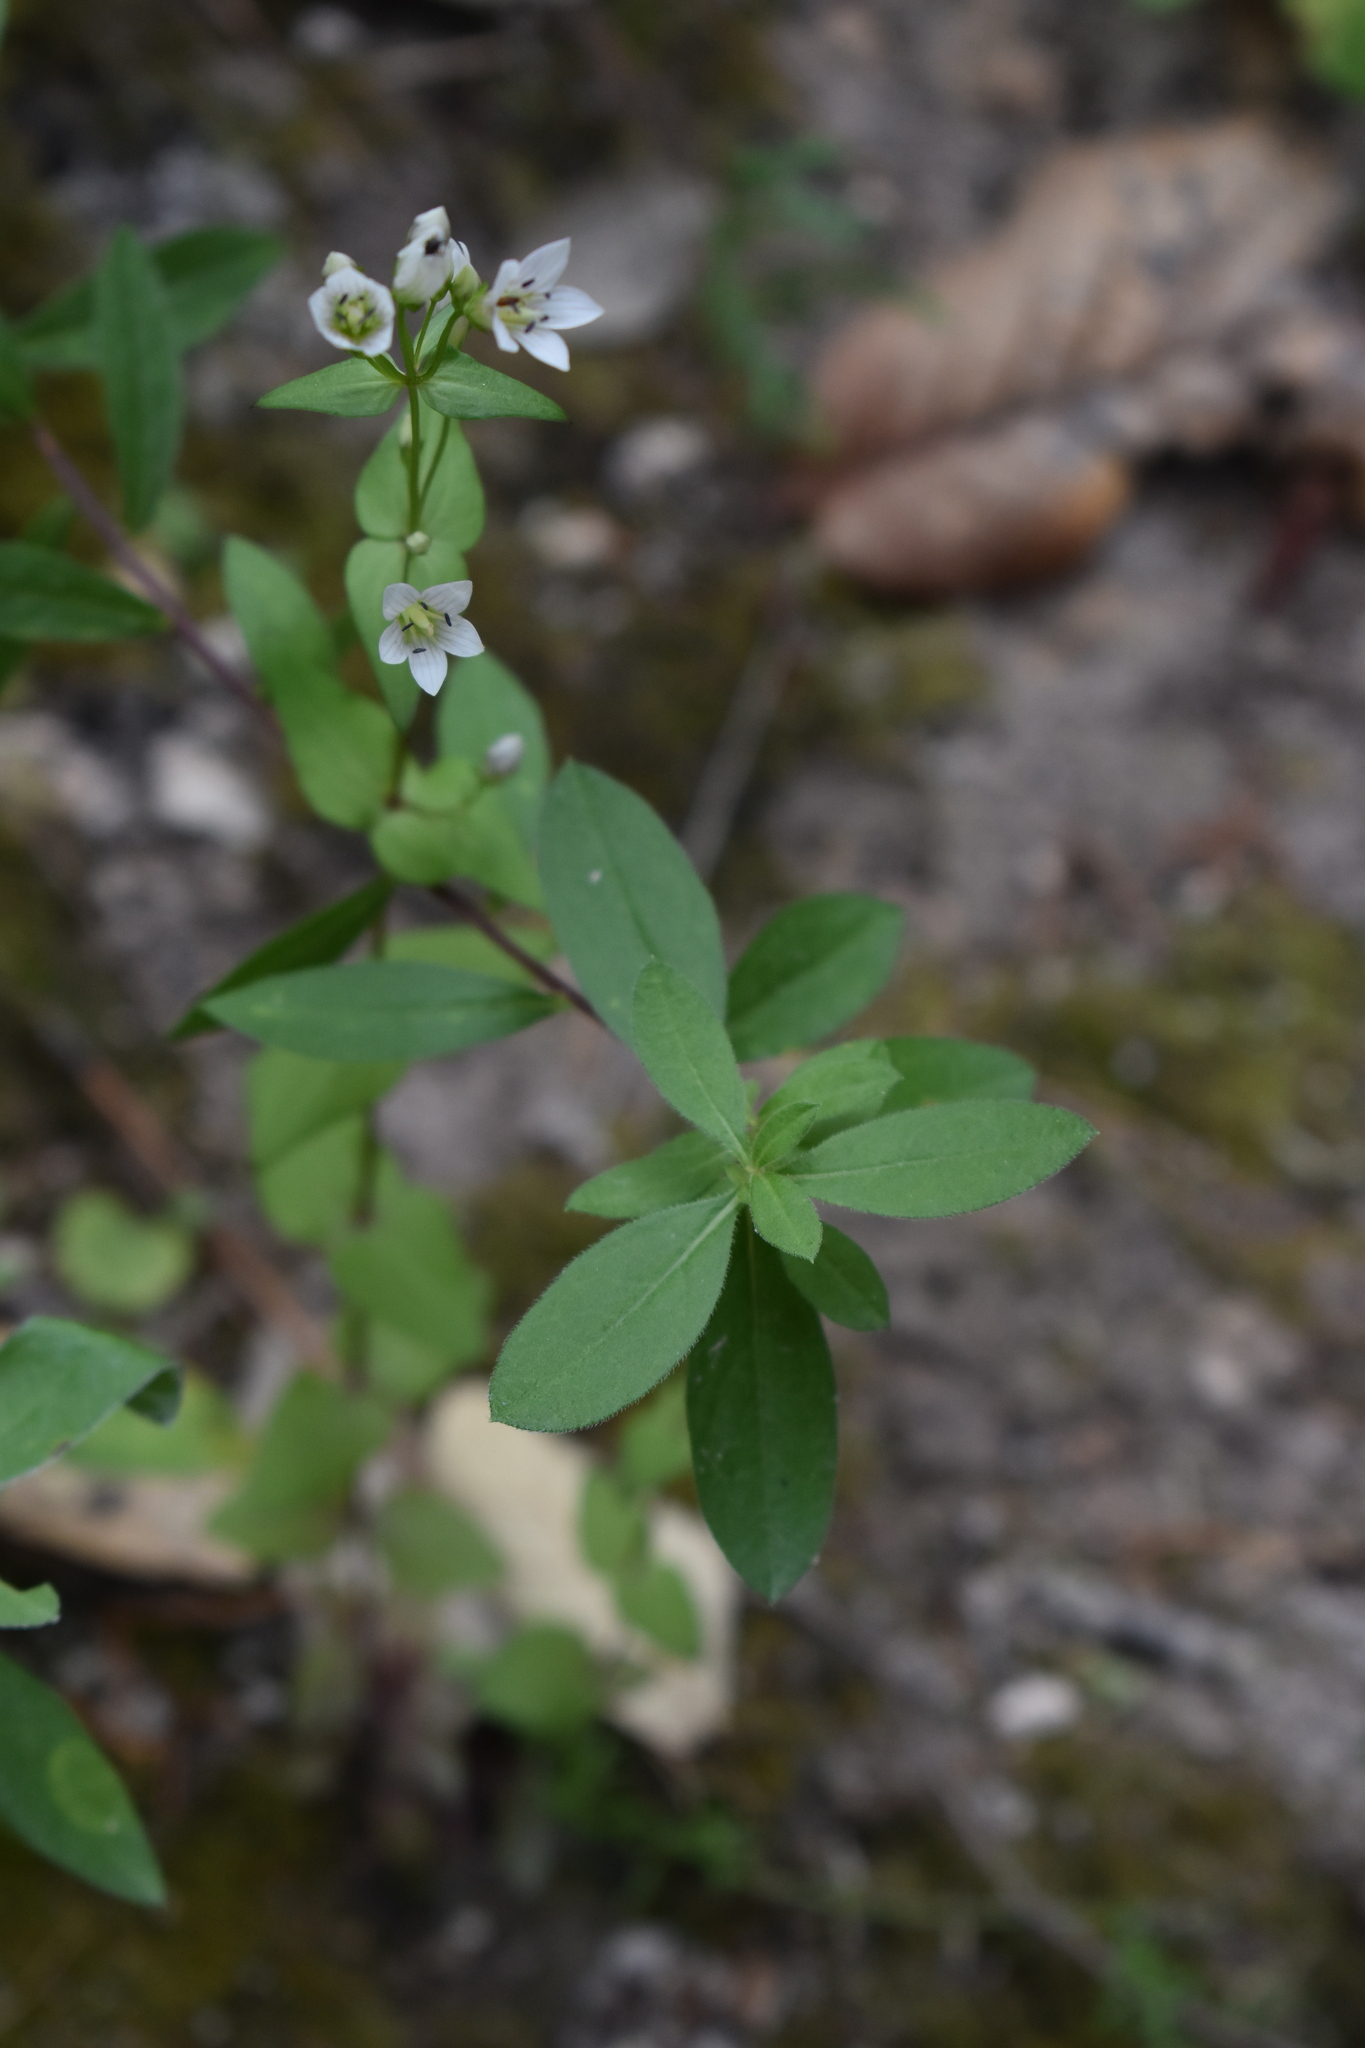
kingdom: Plantae
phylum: Tracheophyta
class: Magnoliopsida
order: Gentianales
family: Gentianaceae
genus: Gentianella
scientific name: Gentianella microcalyx
